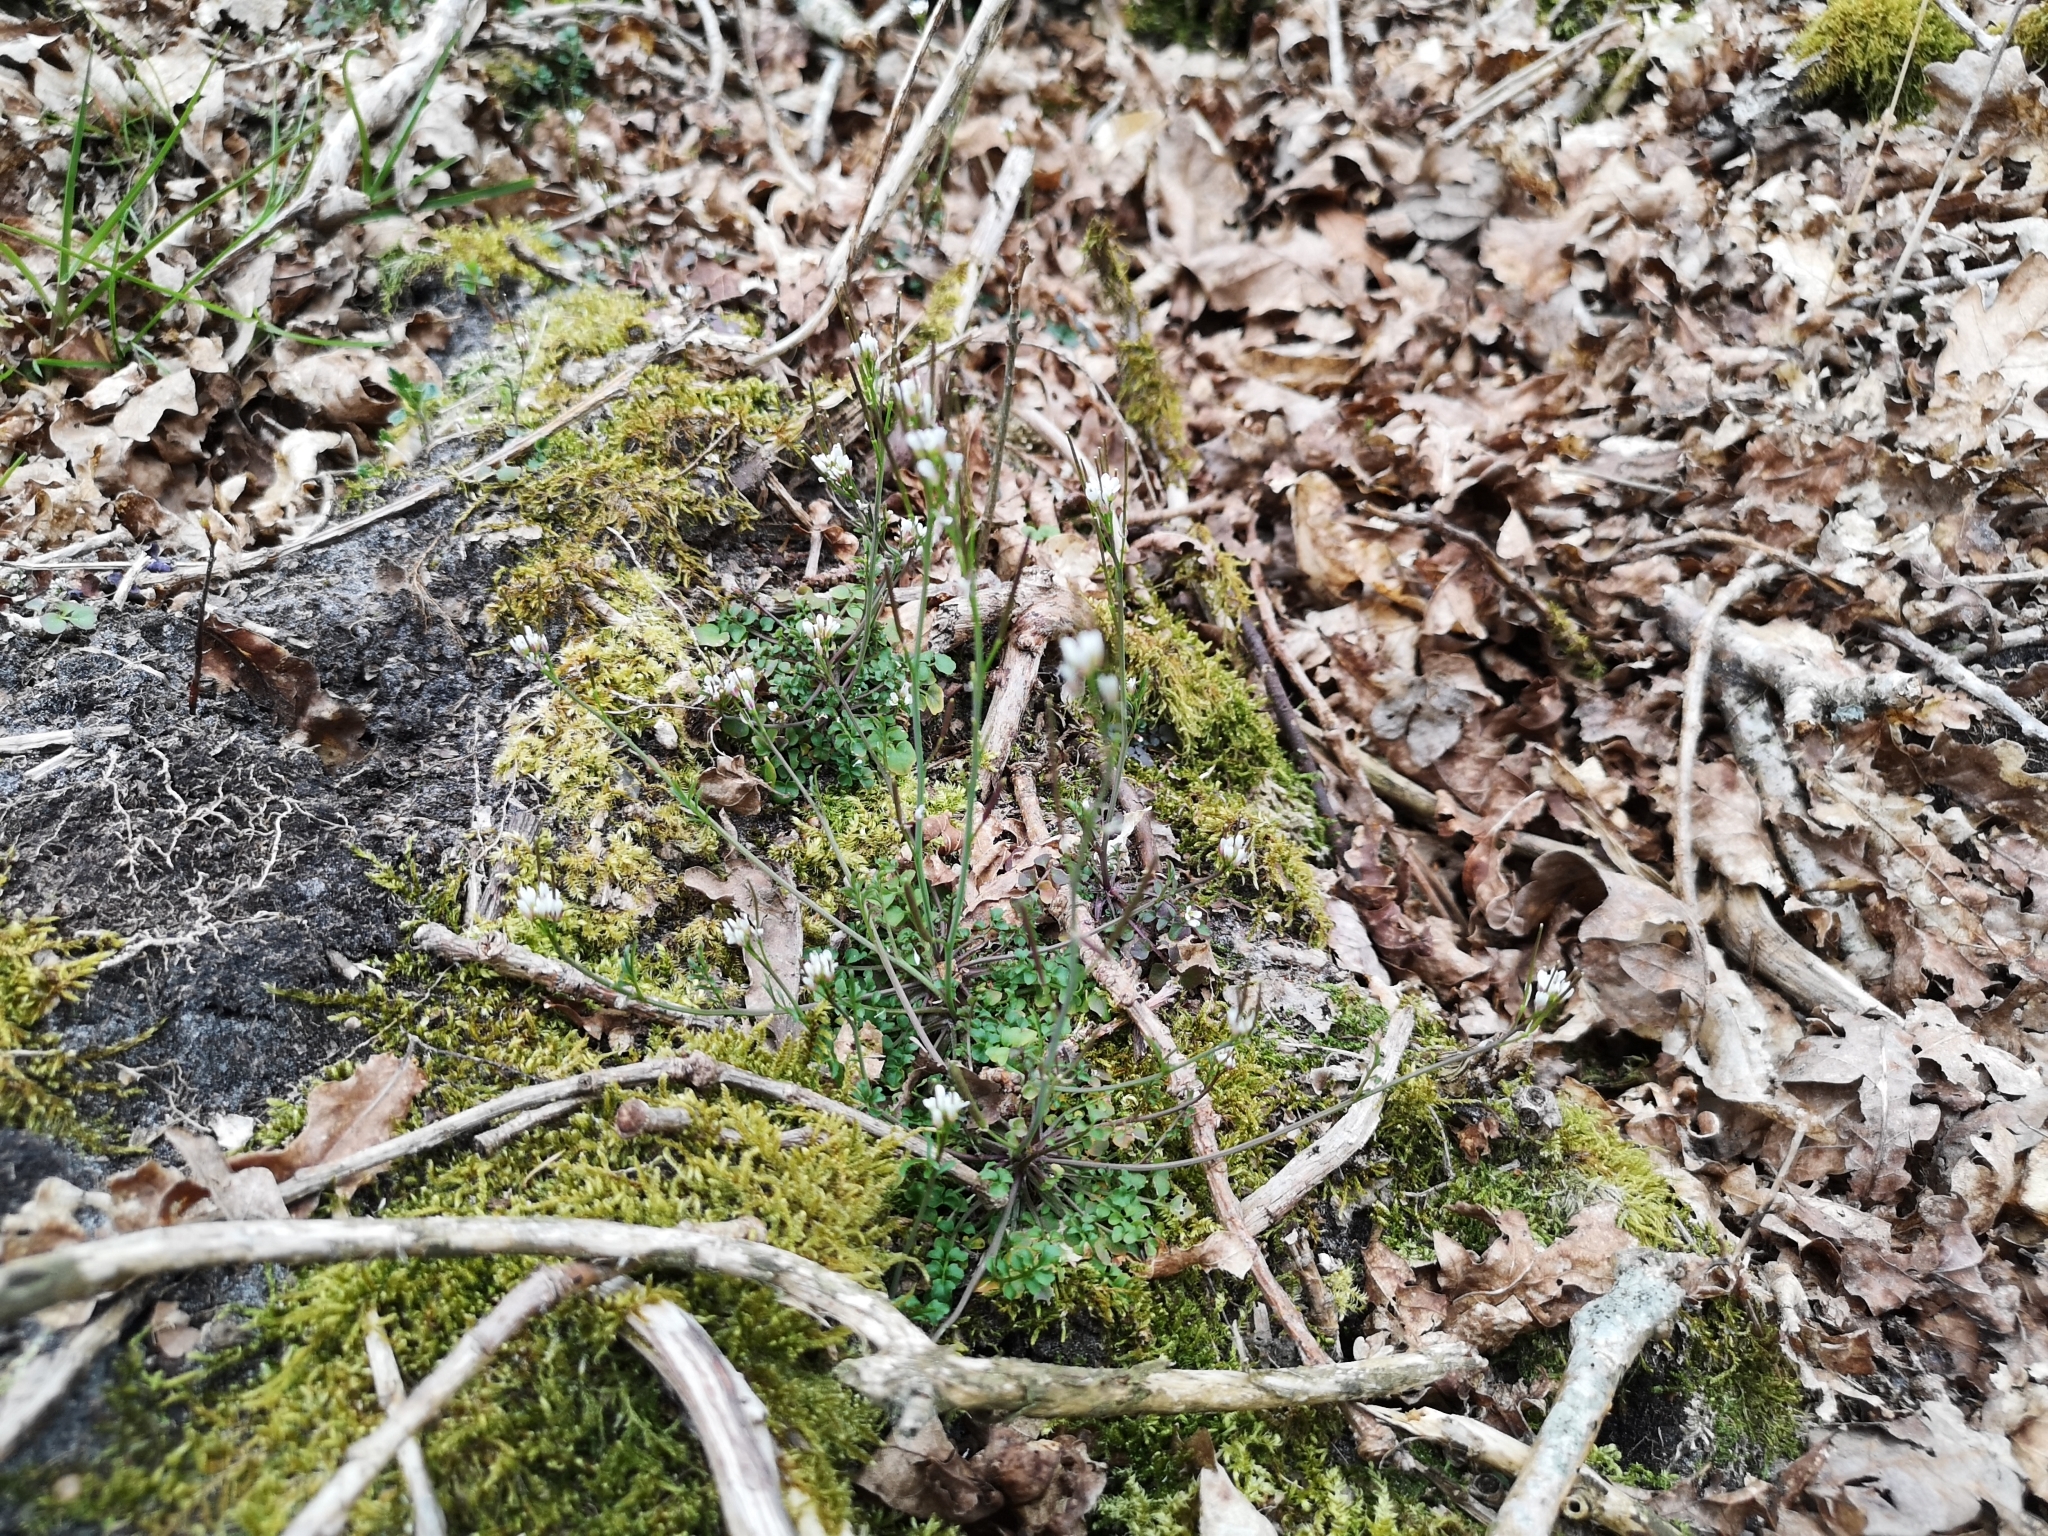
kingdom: Plantae
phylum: Tracheophyta
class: Magnoliopsida
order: Brassicales
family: Brassicaceae
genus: Cardamine
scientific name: Cardamine hirsuta
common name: Hairy bittercress
